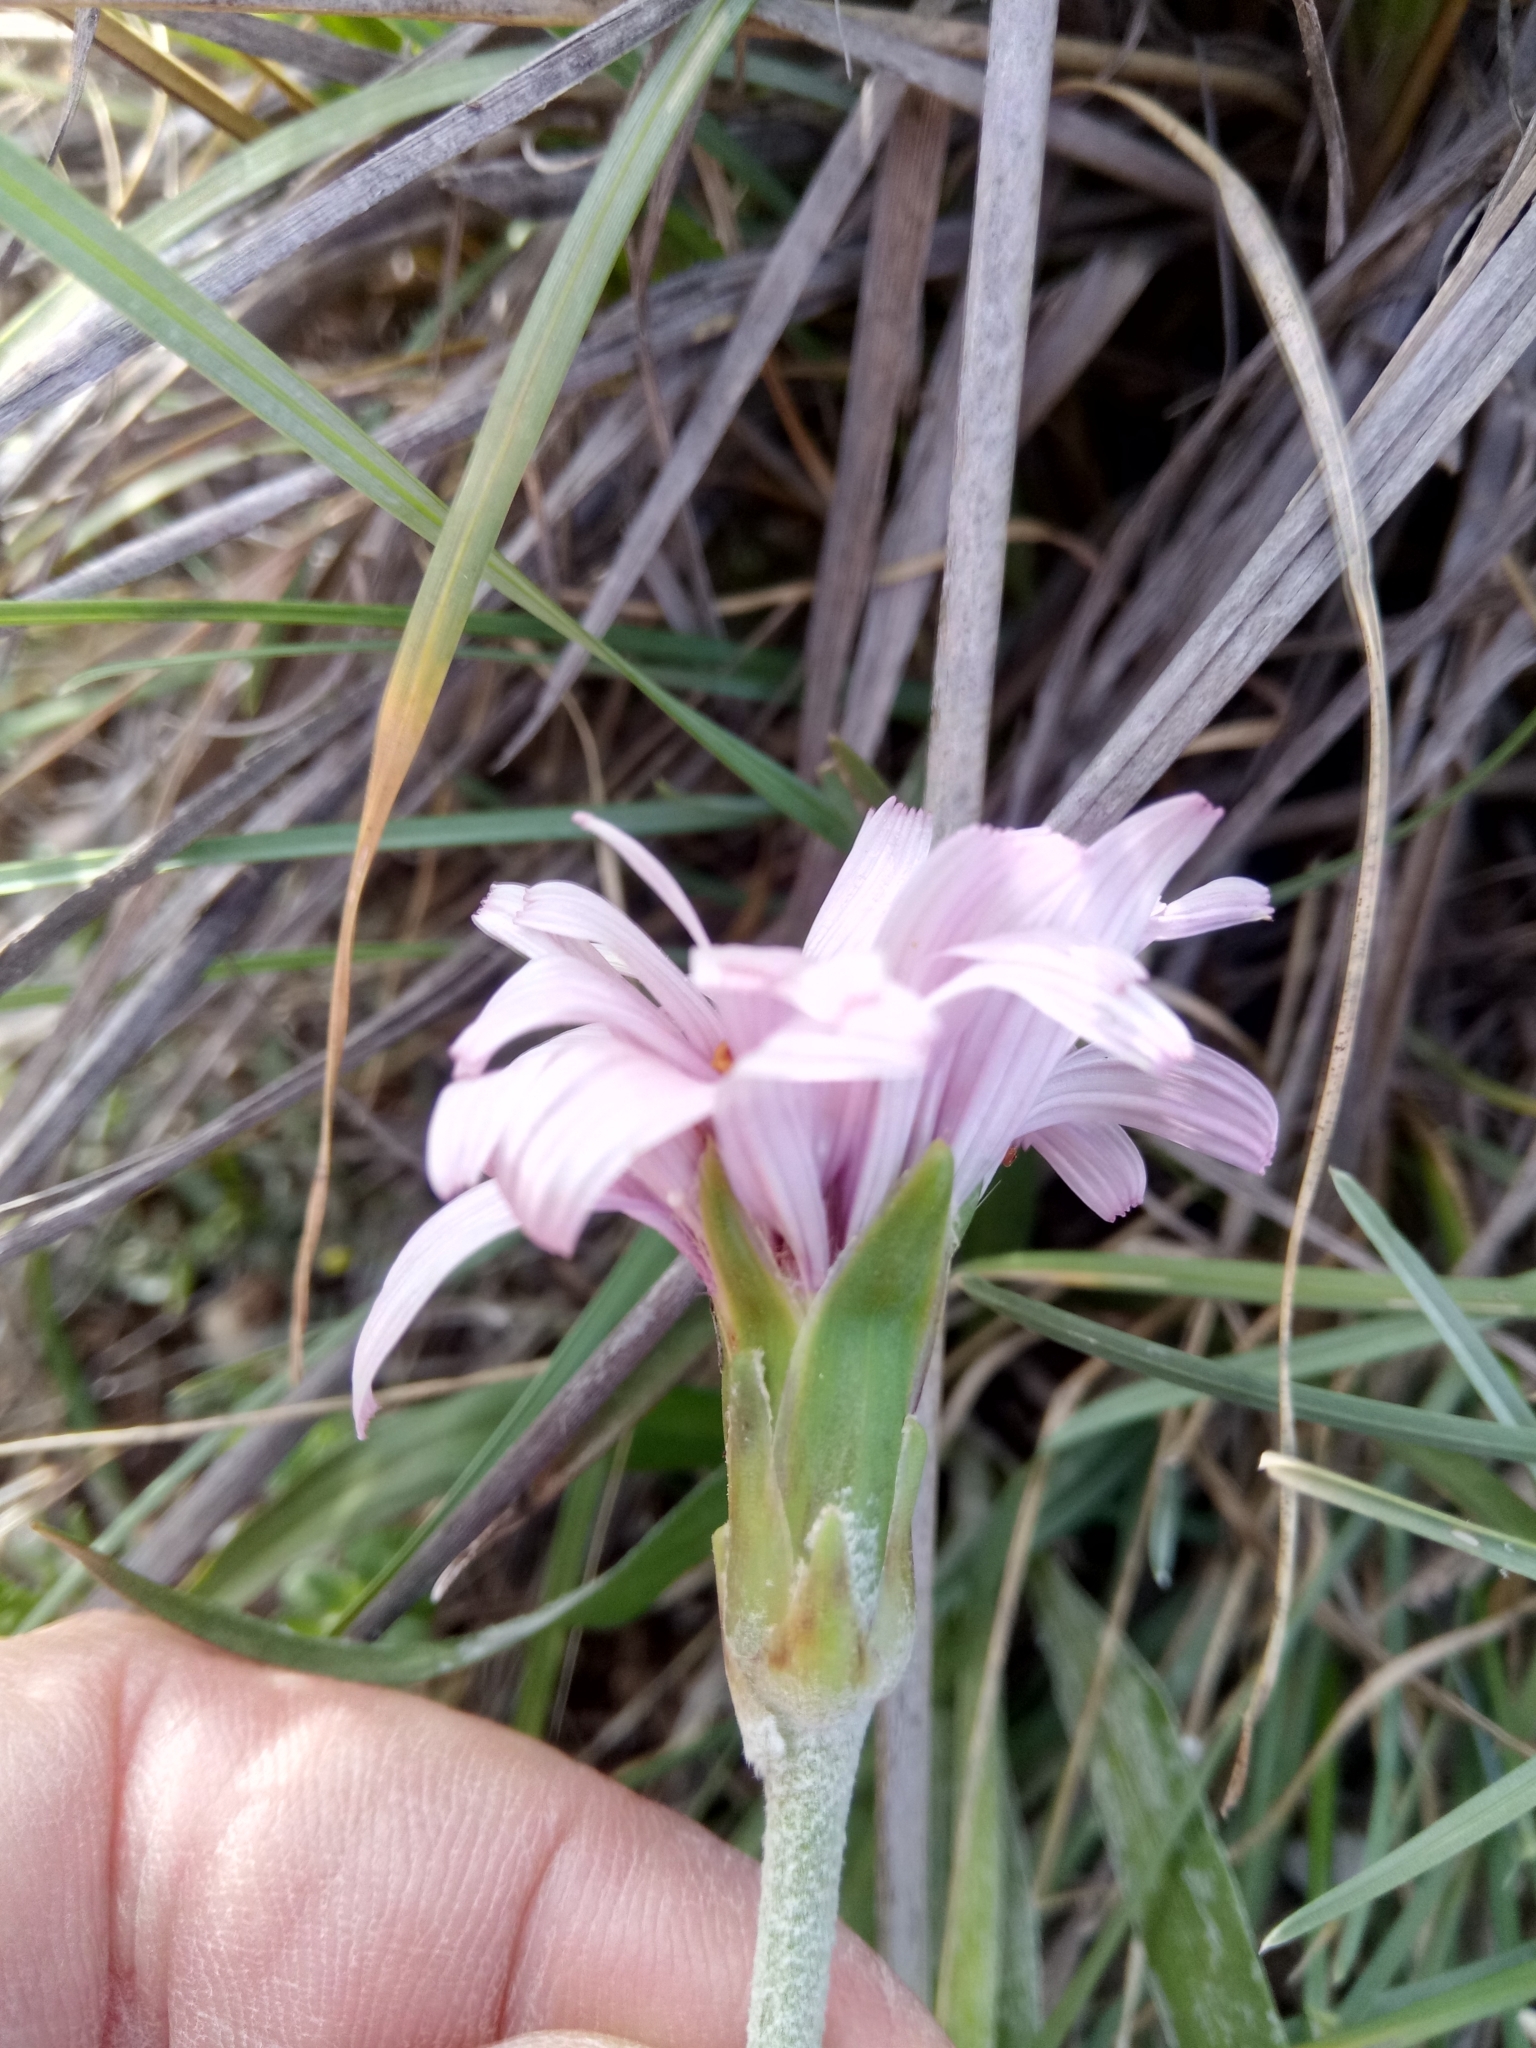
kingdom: Plantae
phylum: Tracheophyta
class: Magnoliopsida
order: Asterales
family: Asteraceae
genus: Pseudopodospermum
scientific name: Pseudopodospermum undulatum
